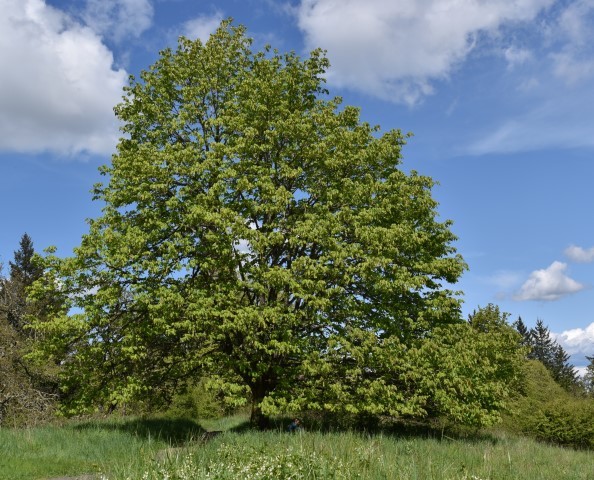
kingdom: Plantae
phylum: Tracheophyta
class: Magnoliopsida
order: Sapindales
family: Sapindaceae
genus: Acer
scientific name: Acer macrophyllum
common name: Oregon maple
